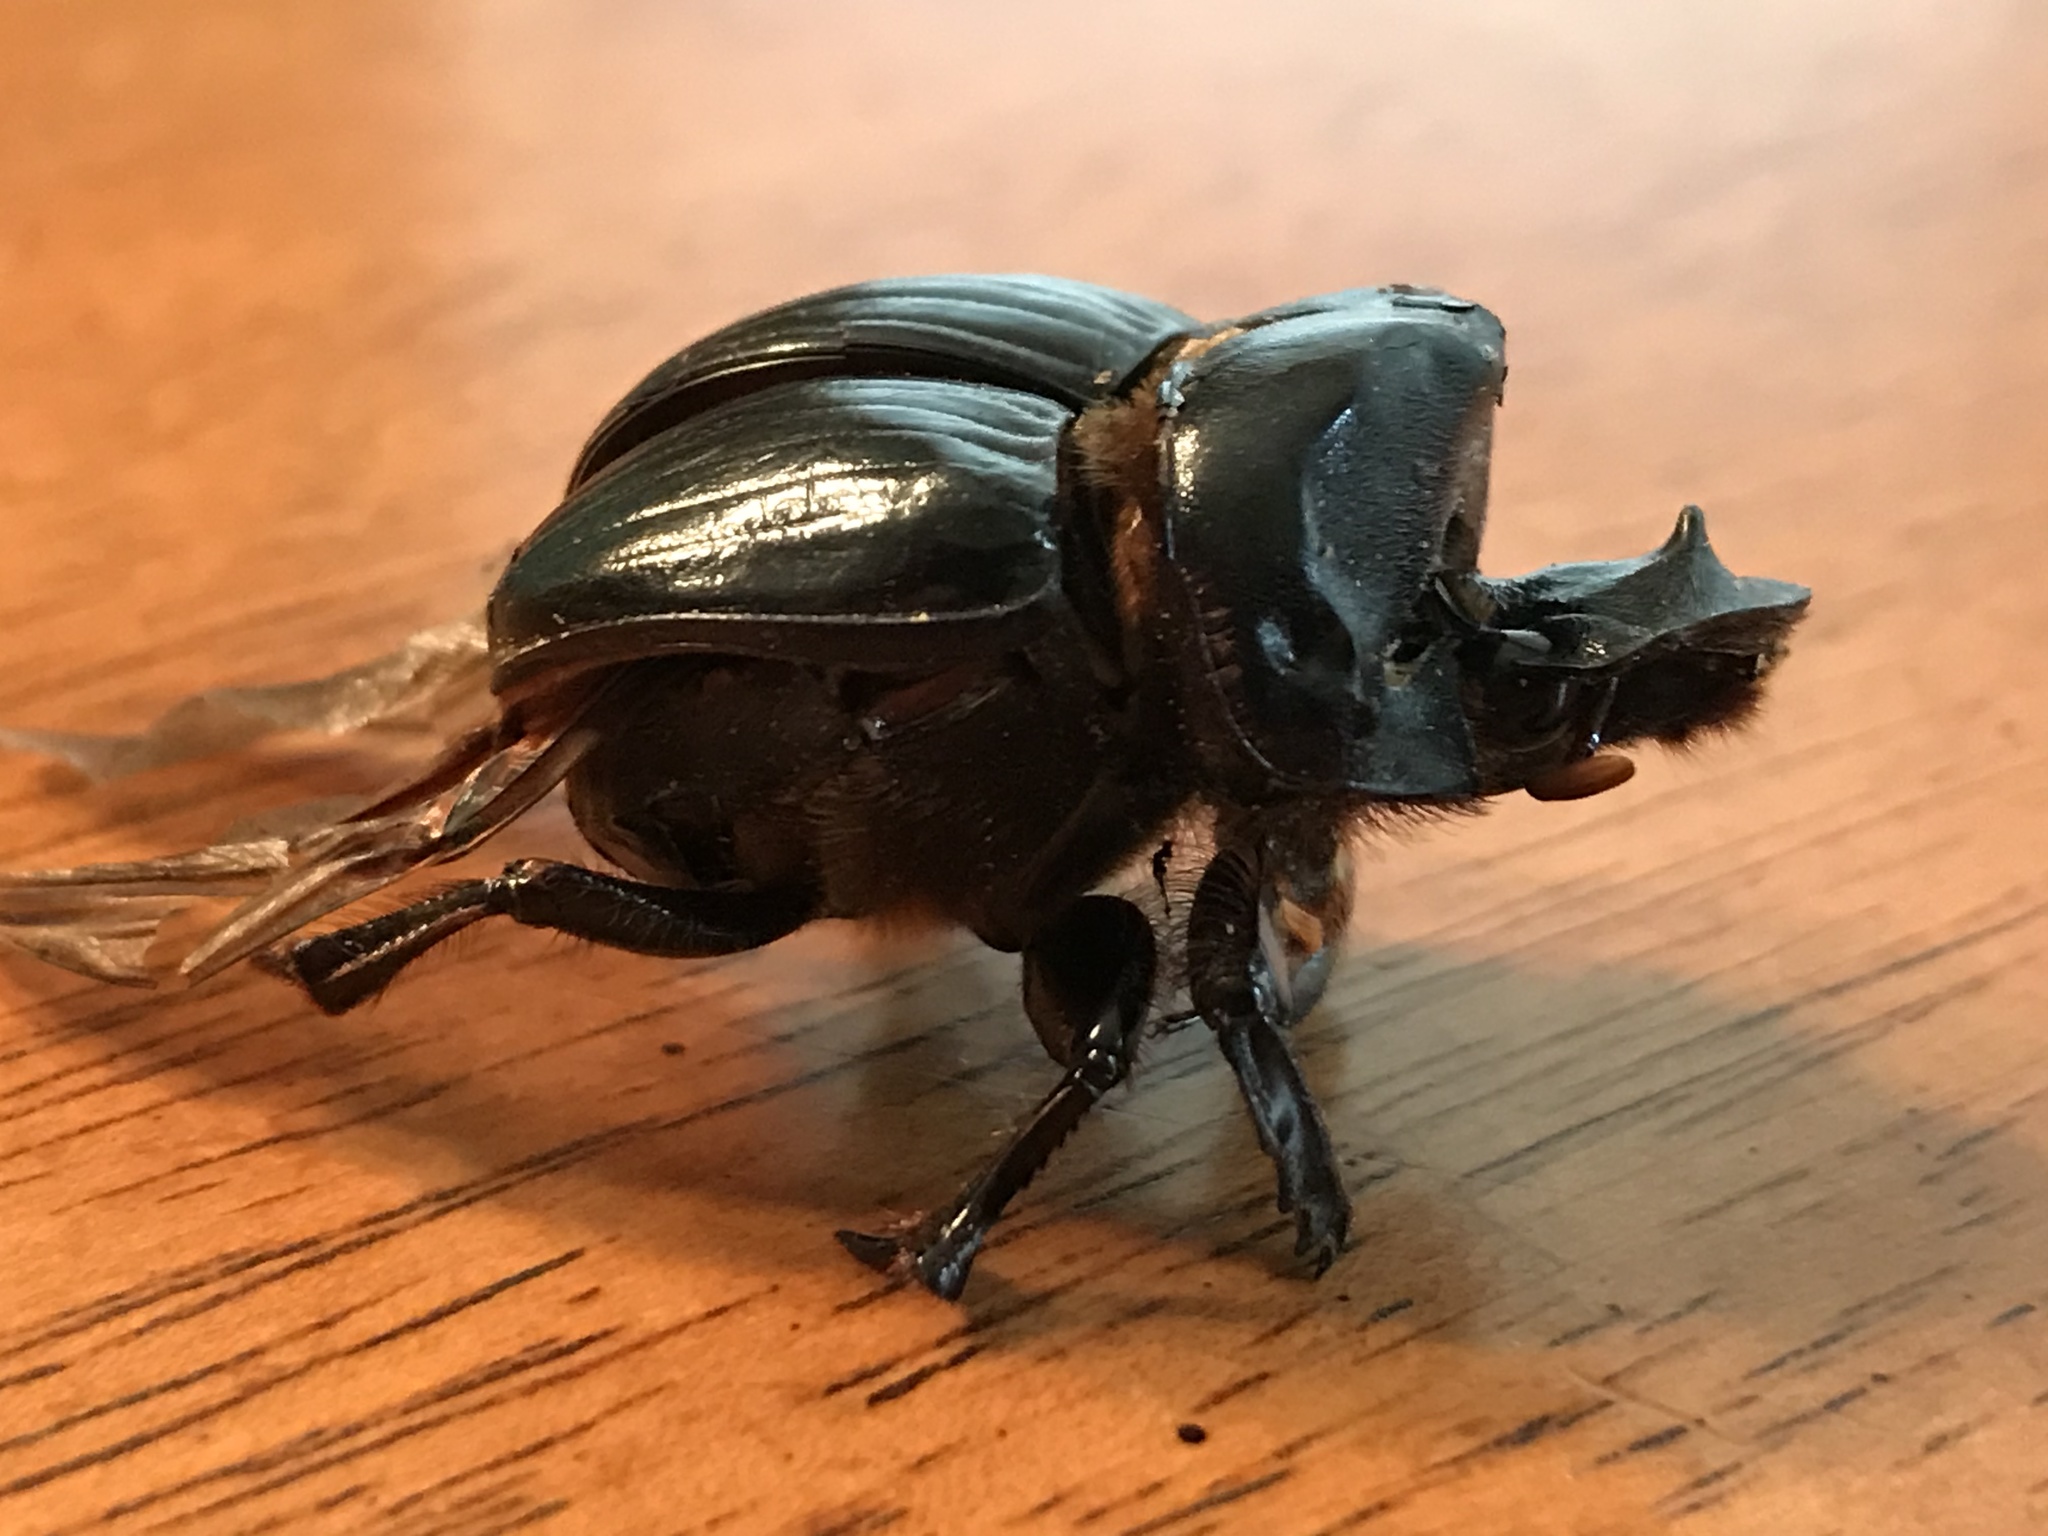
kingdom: Animalia
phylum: Arthropoda
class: Insecta
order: Coleoptera
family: Scarabaeidae
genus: Dichotomius
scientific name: Dichotomius carolinus
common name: Carolina copris
